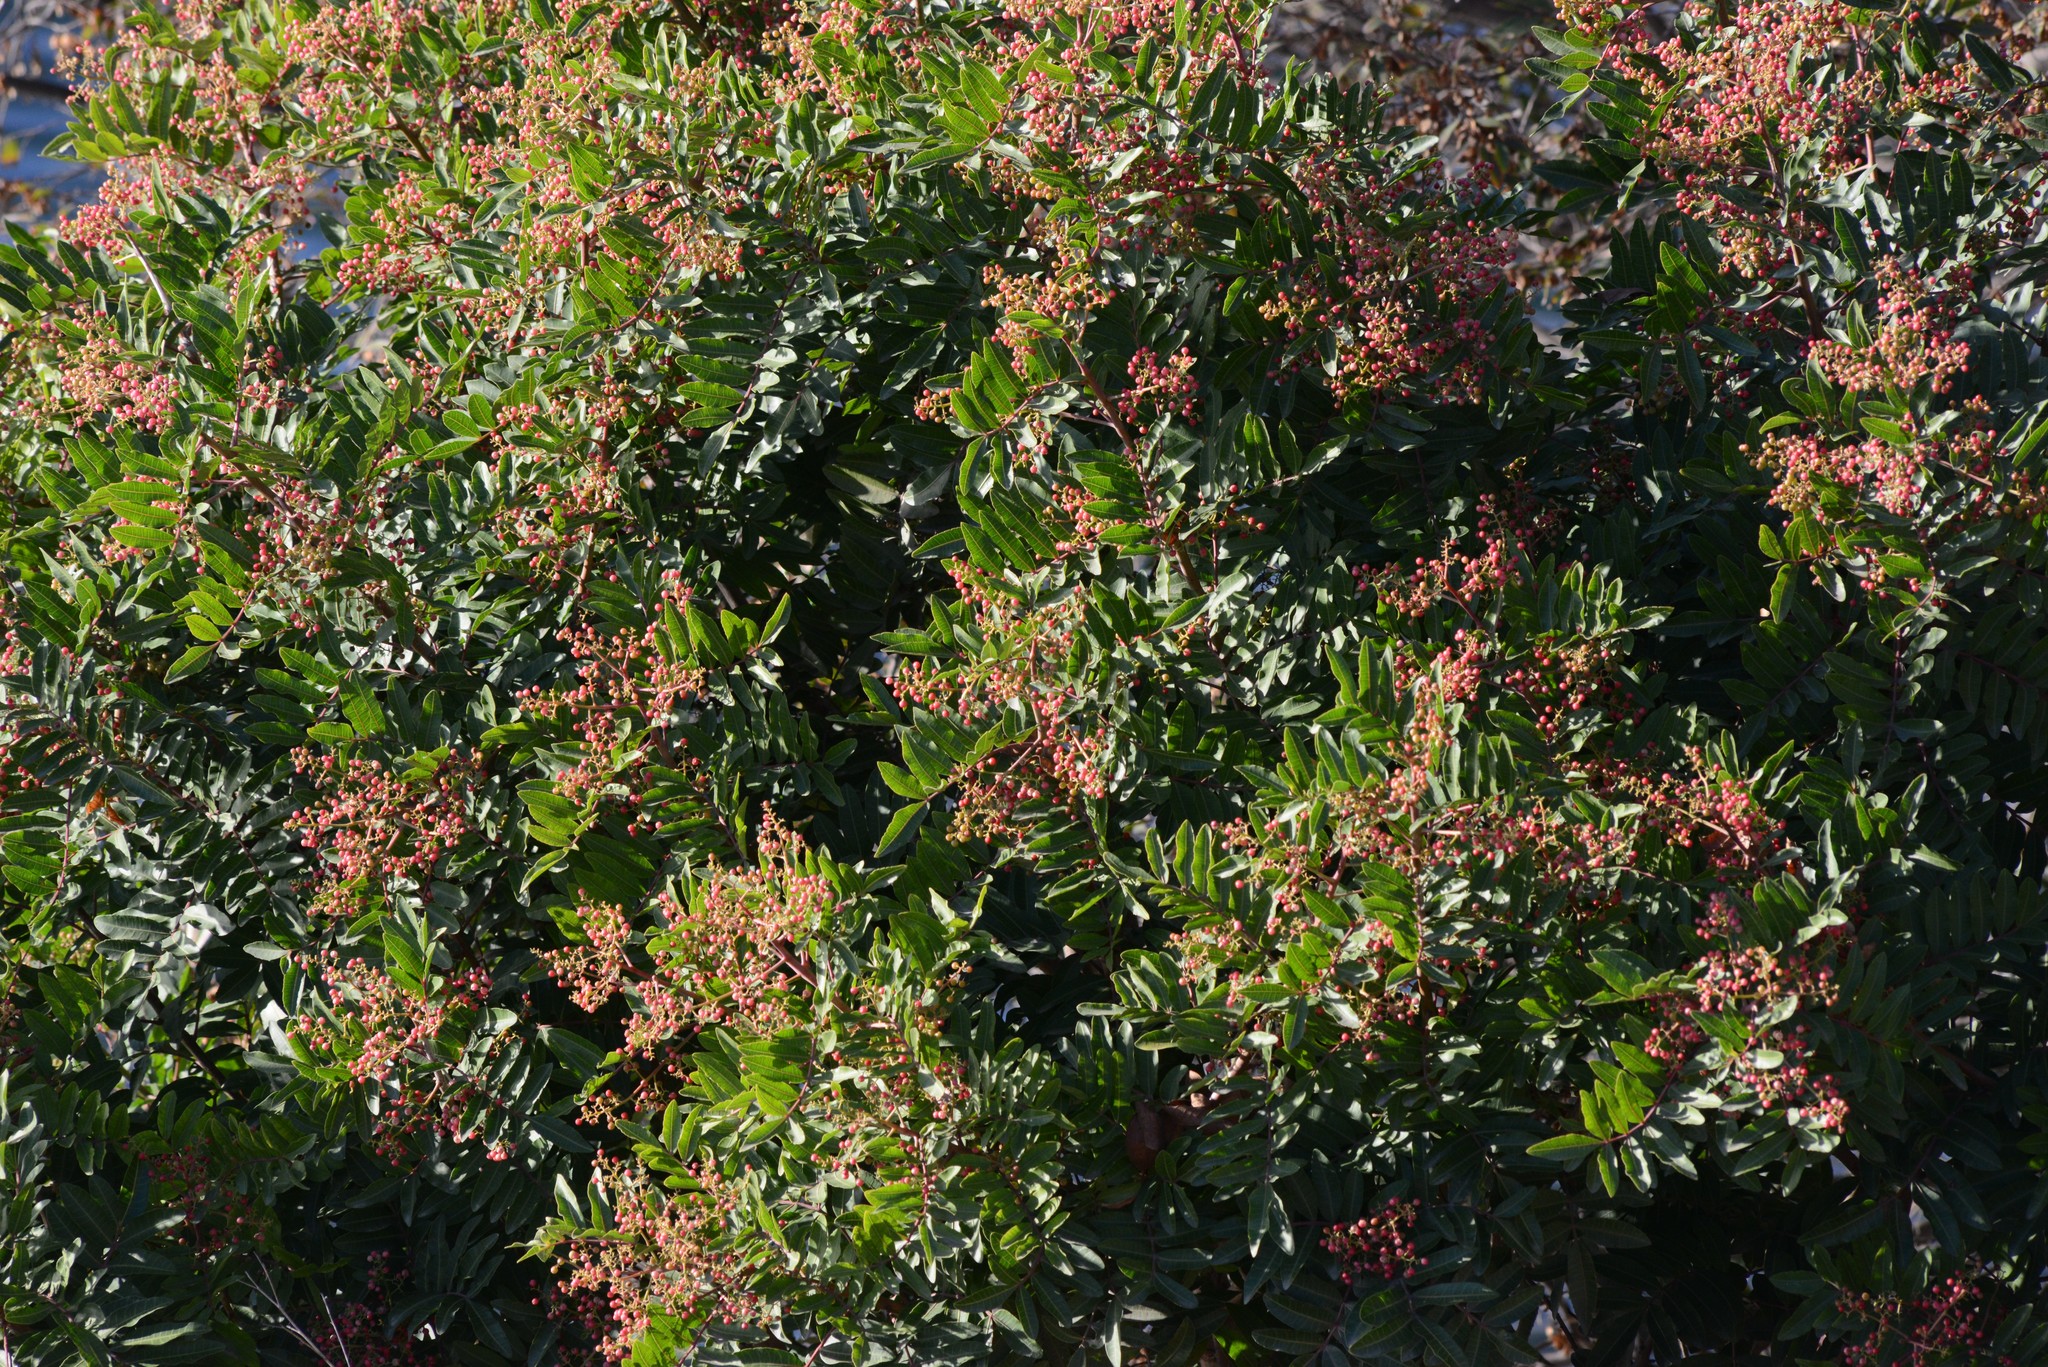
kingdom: Plantae
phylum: Tracheophyta
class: Magnoliopsida
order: Sapindales
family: Anacardiaceae
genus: Schinus
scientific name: Schinus terebinthifolia
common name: Brazilian peppertree
